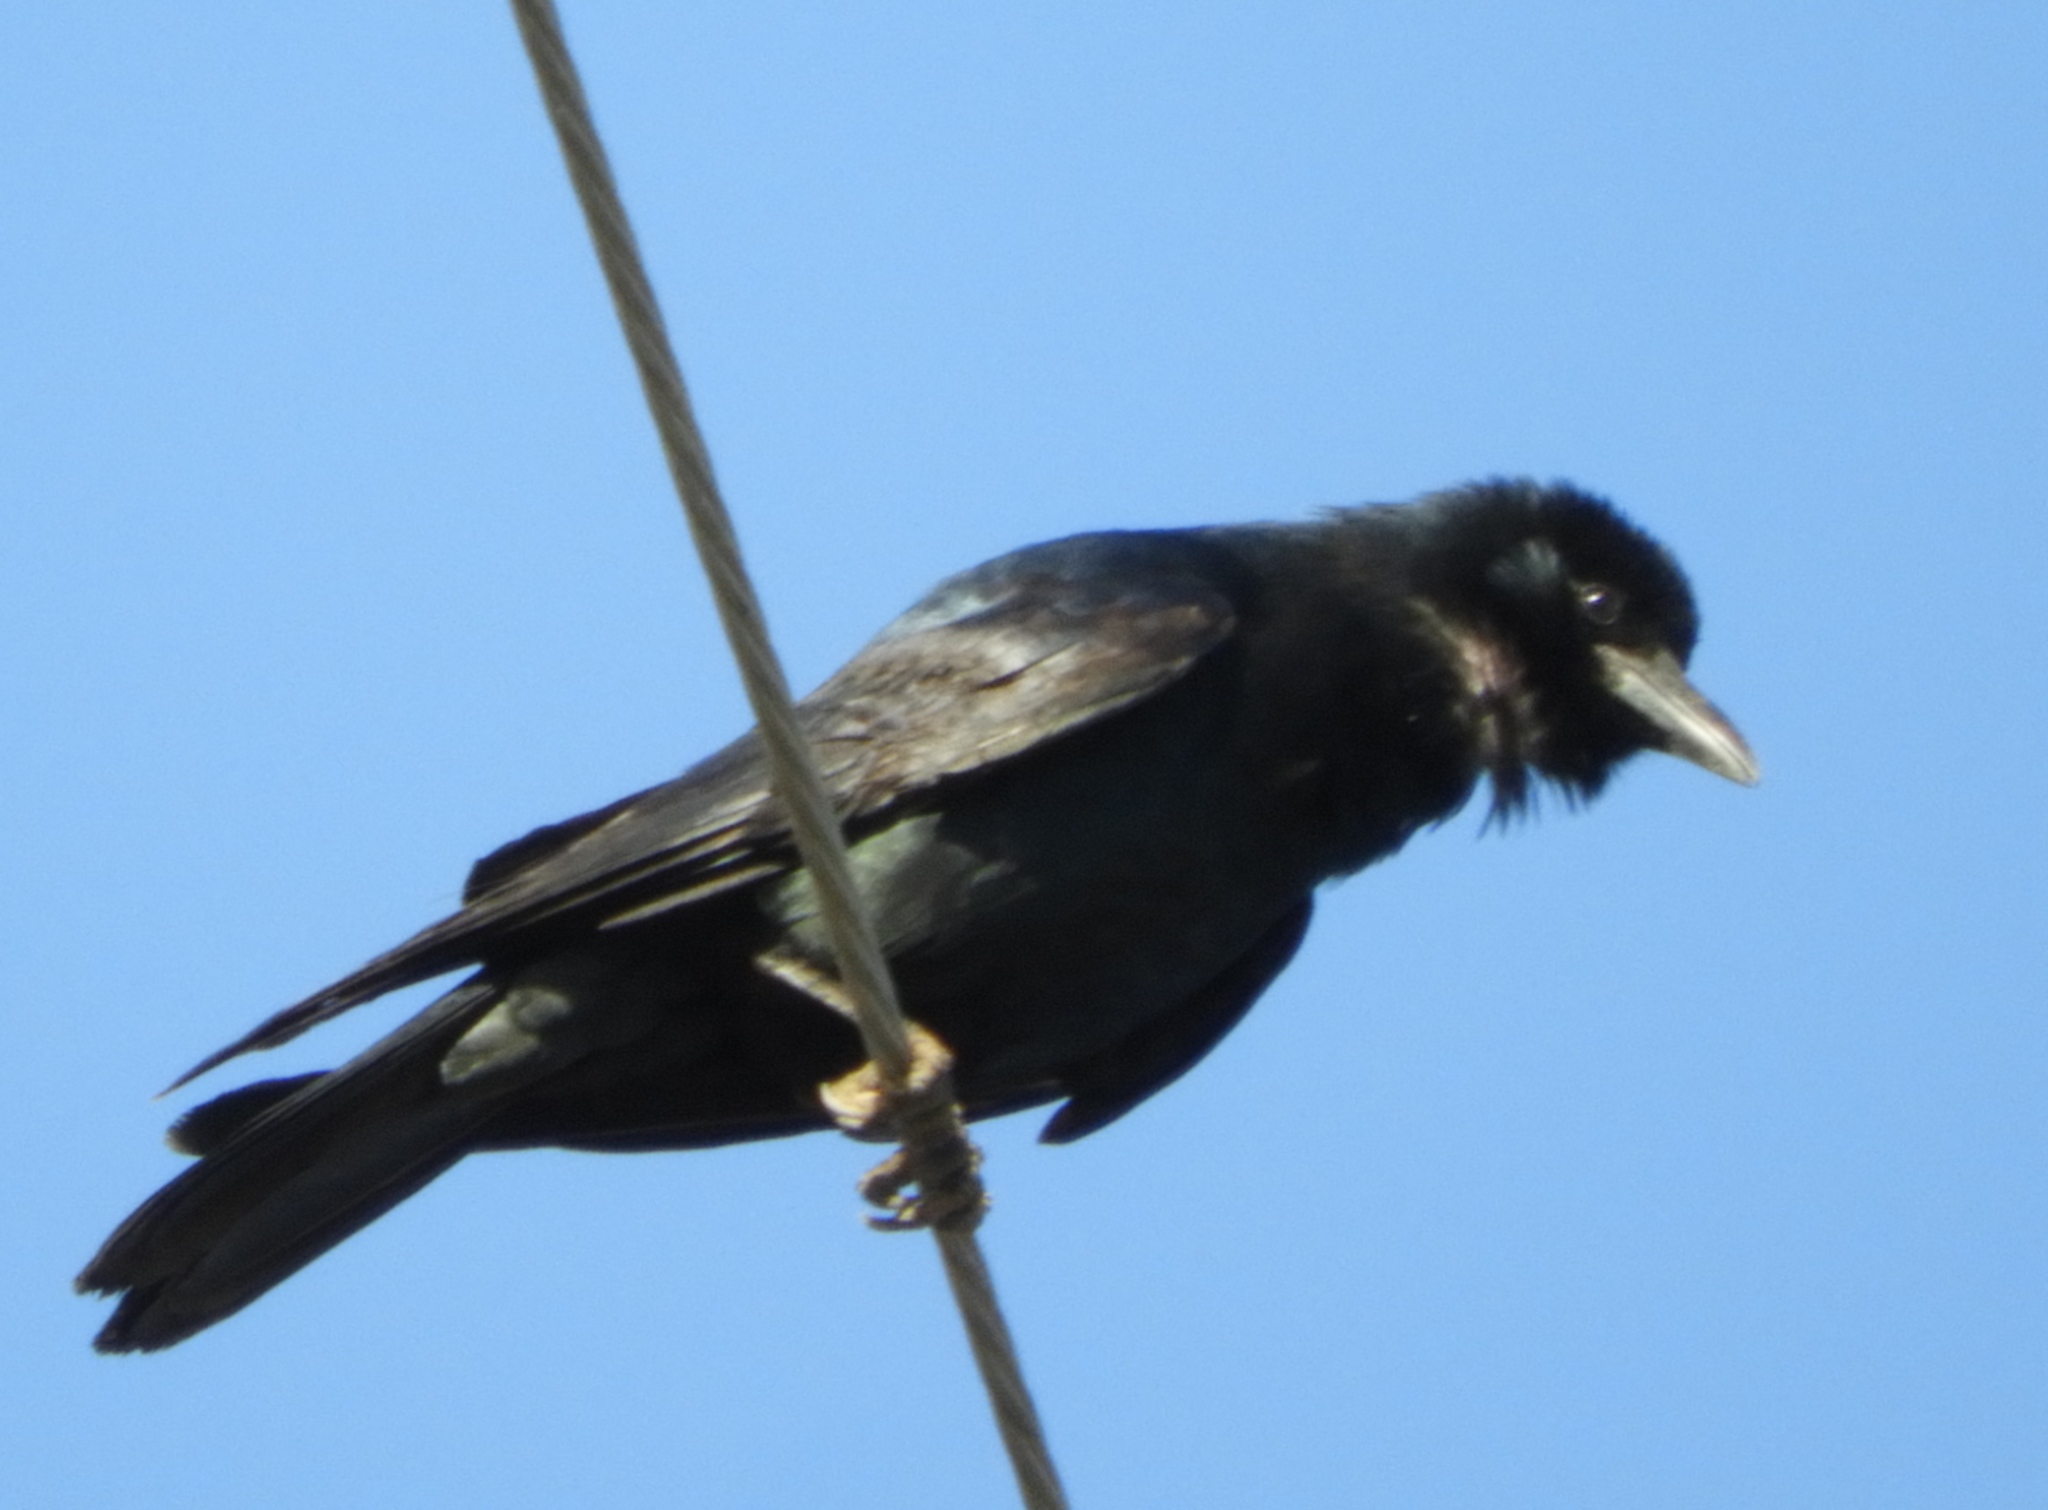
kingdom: Animalia
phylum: Chordata
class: Aves
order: Passeriformes
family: Corvidae
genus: Corvus
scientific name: Corvus sinaloae
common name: Sinaloa crow
